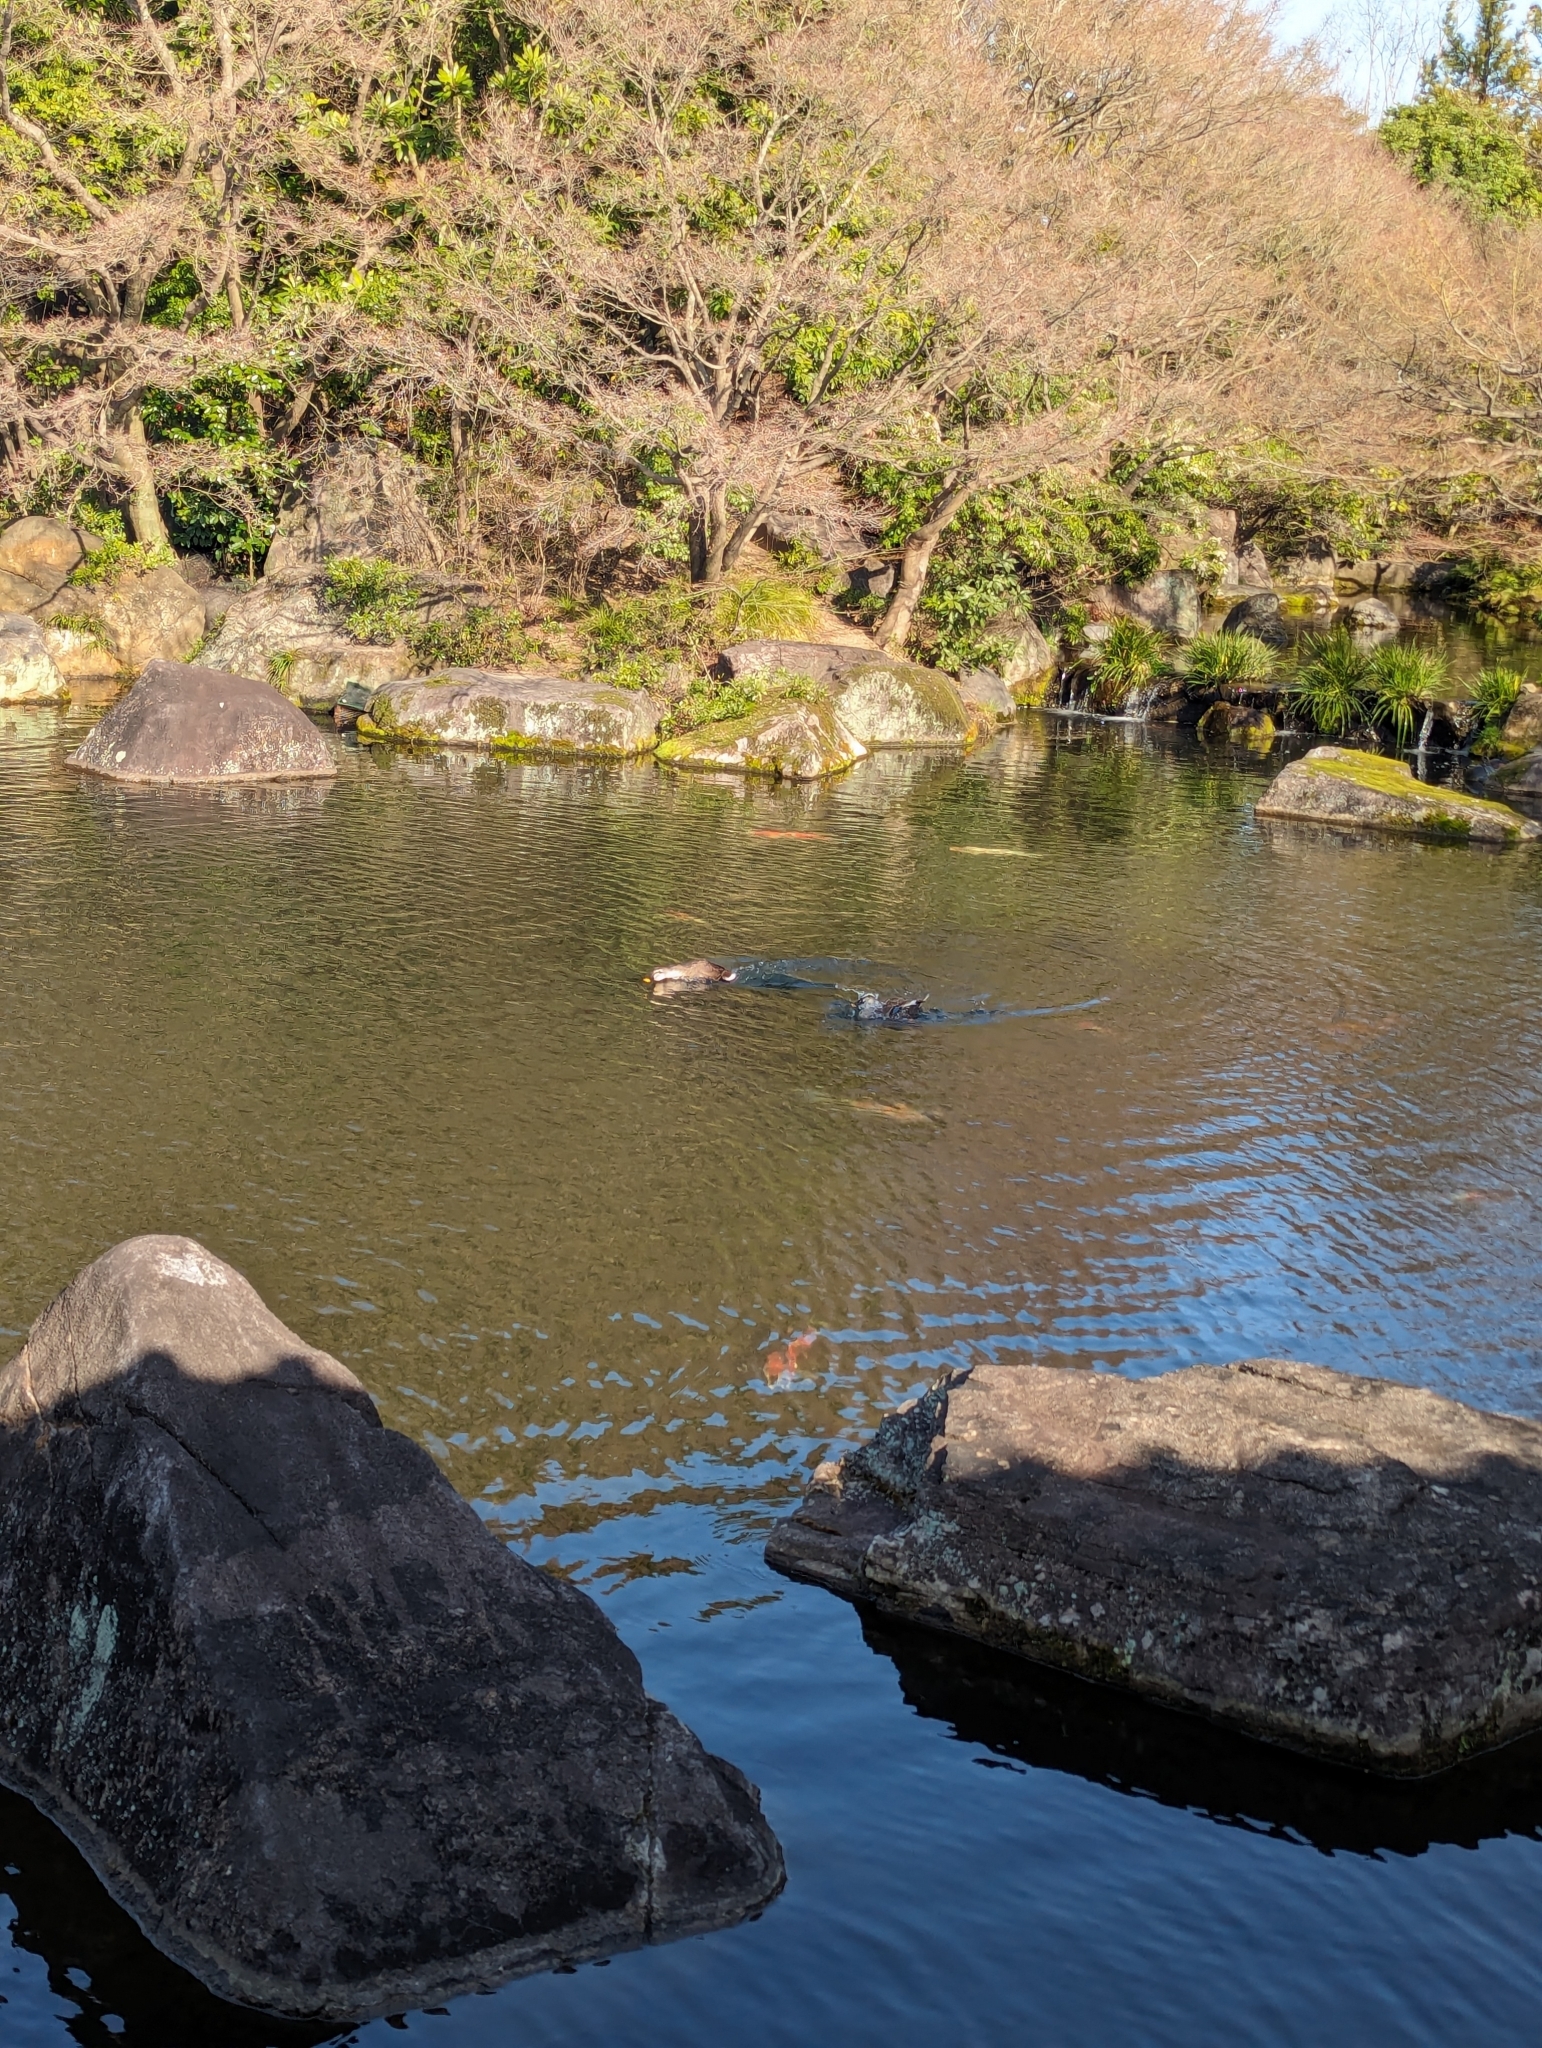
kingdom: Animalia
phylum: Chordata
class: Aves
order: Anseriformes
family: Anatidae
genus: Anas
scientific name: Anas zonorhyncha
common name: Eastern spot-billed duck
